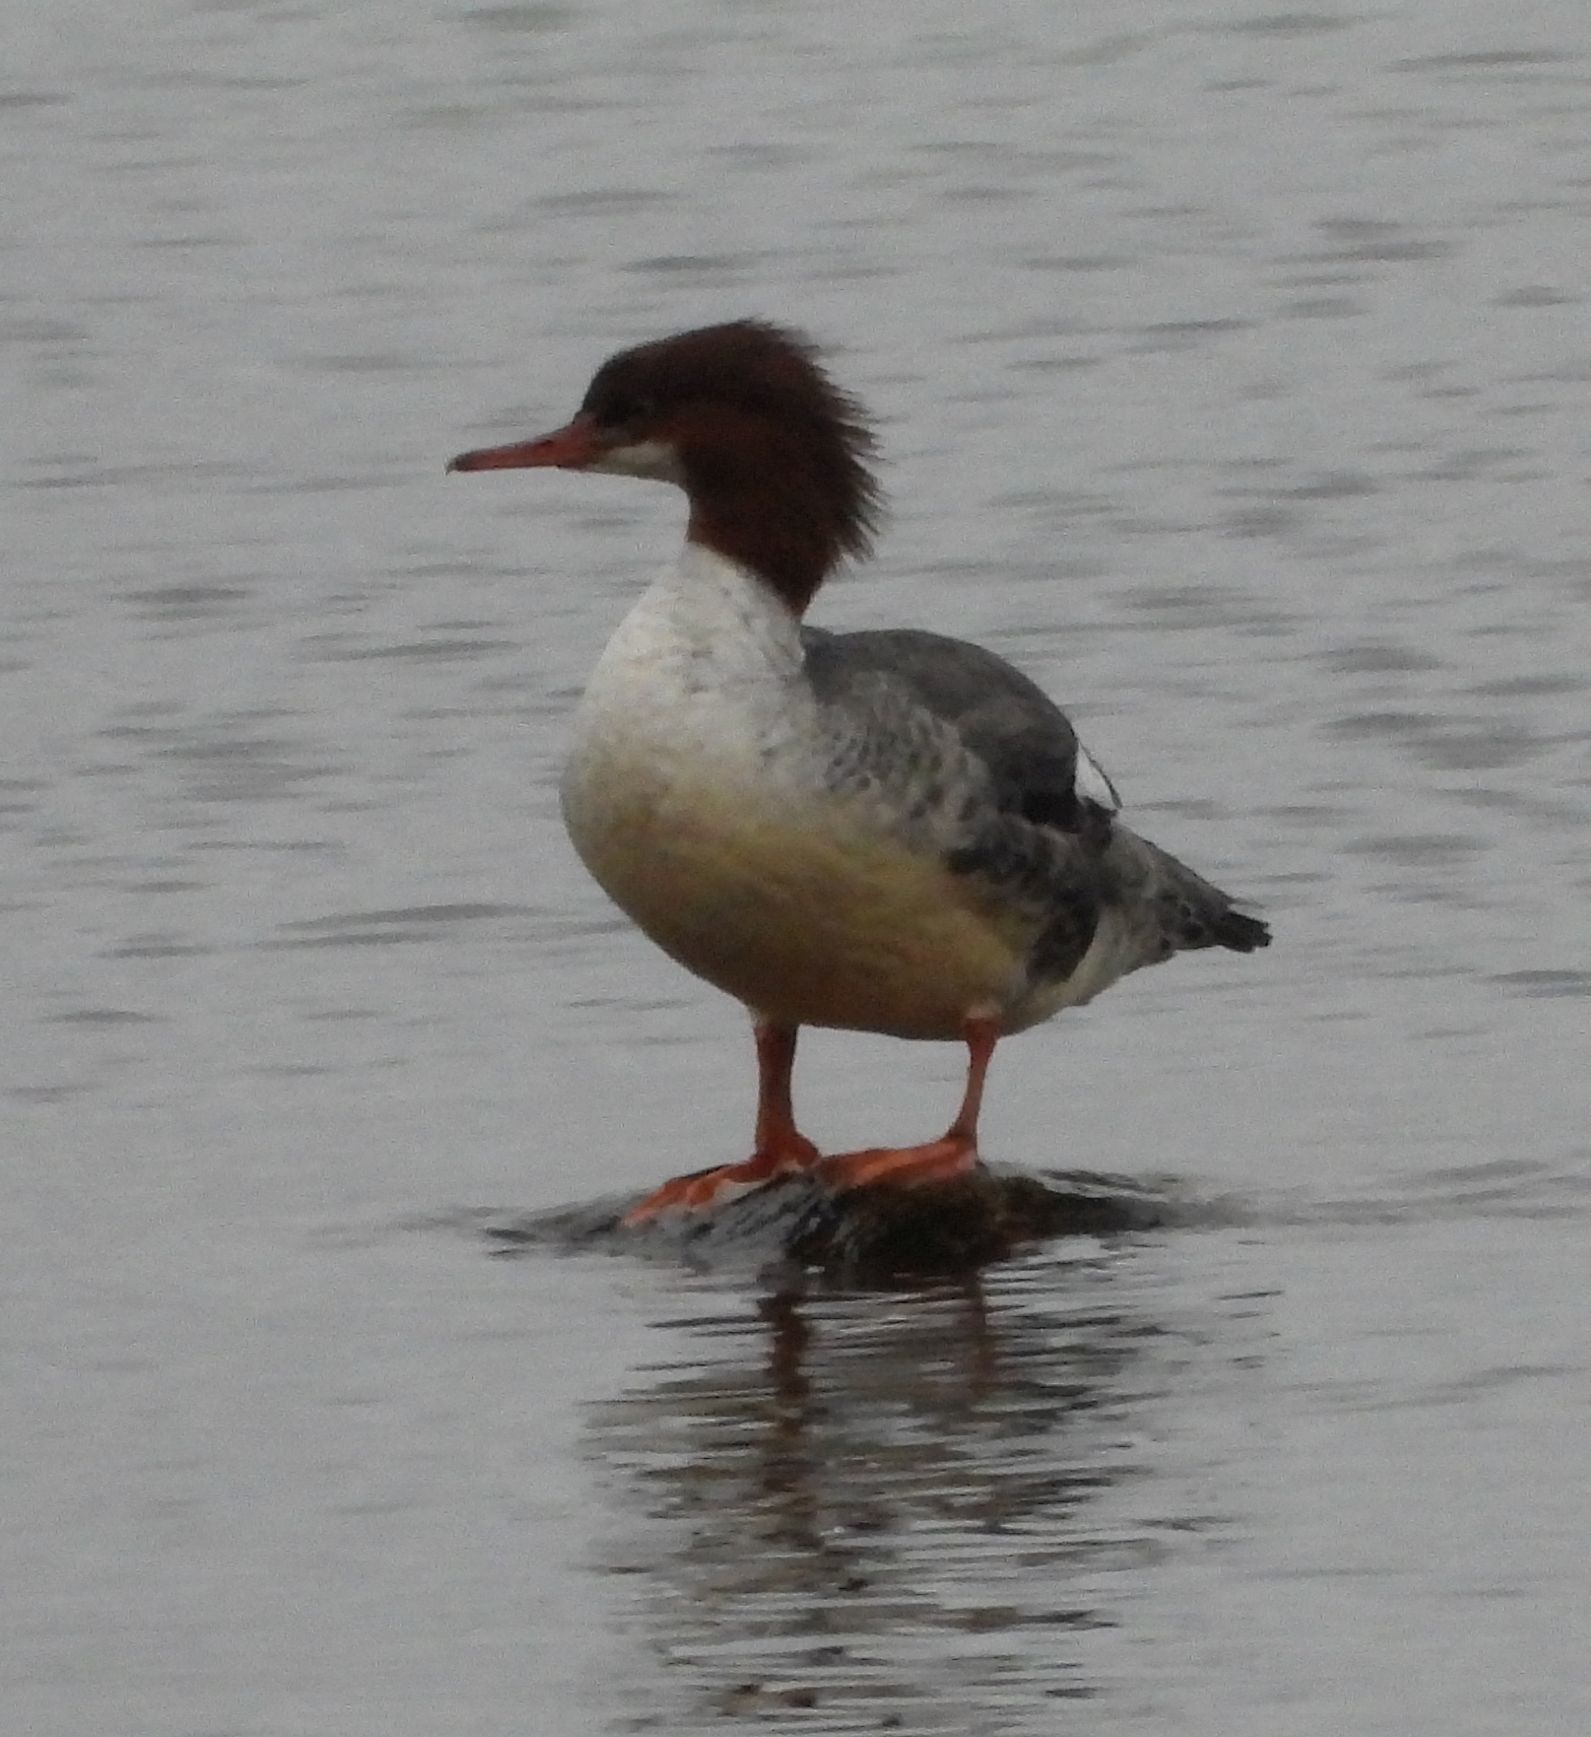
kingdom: Animalia
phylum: Chordata
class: Aves
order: Anseriformes
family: Anatidae
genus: Mergus
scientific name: Mergus merganser
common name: Common merganser
